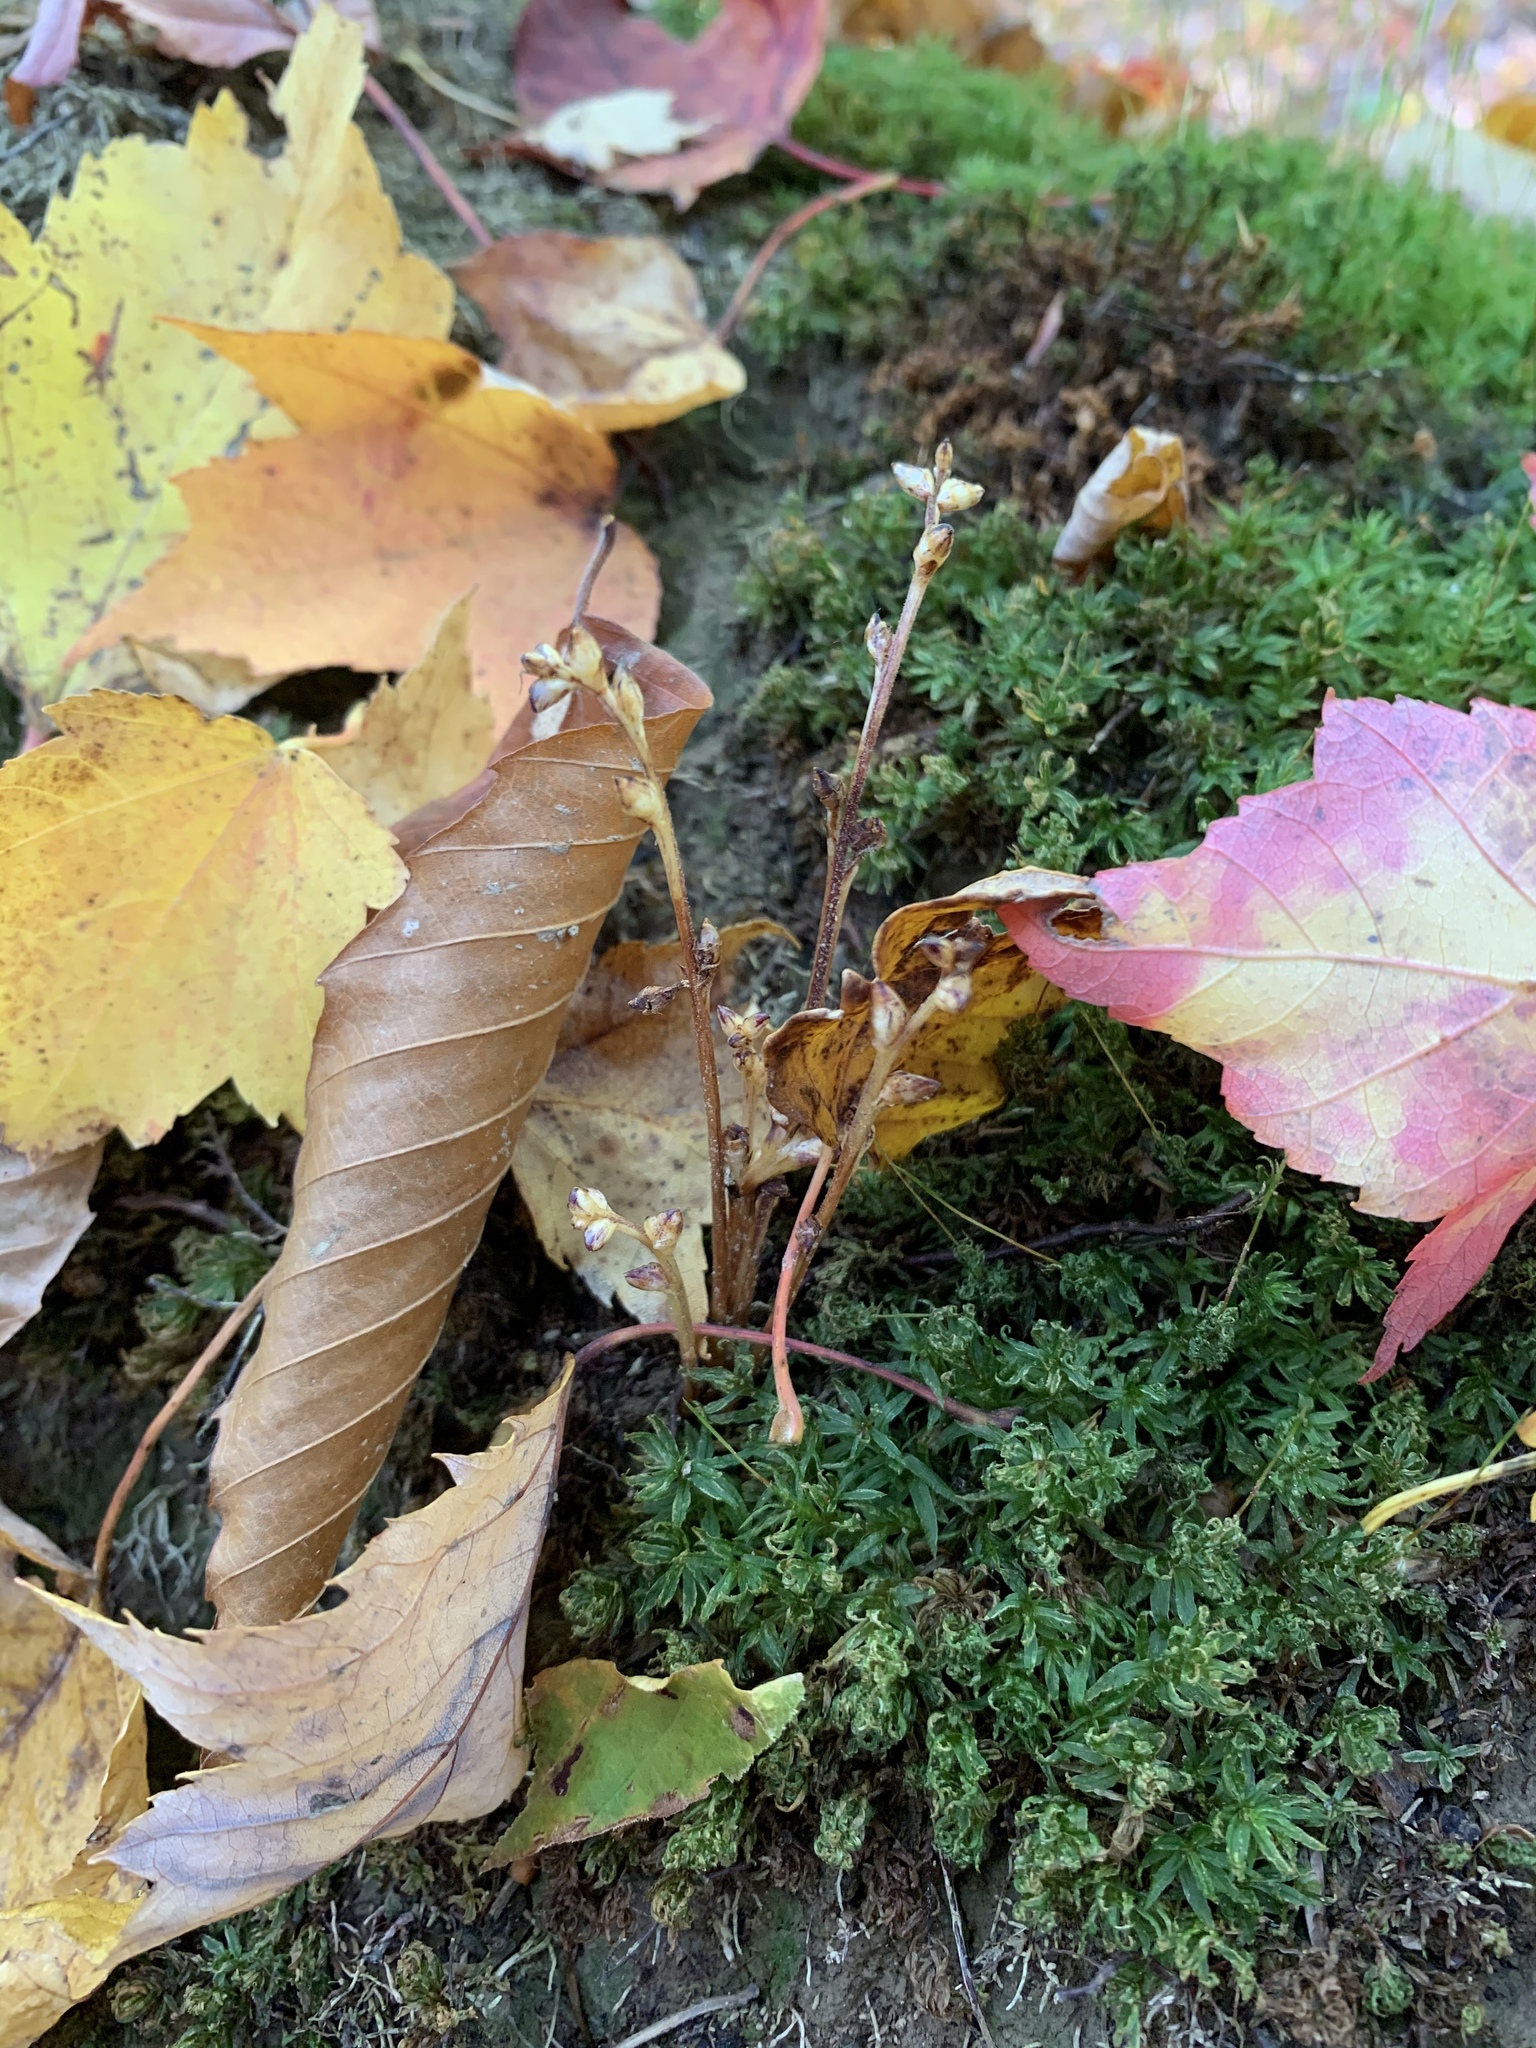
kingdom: Plantae
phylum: Tracheophyta
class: Magnoliopsida
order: Lamiales
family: Orobanchaceae
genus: Epifagus
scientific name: Epifagus virginiana
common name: Beechdrops
